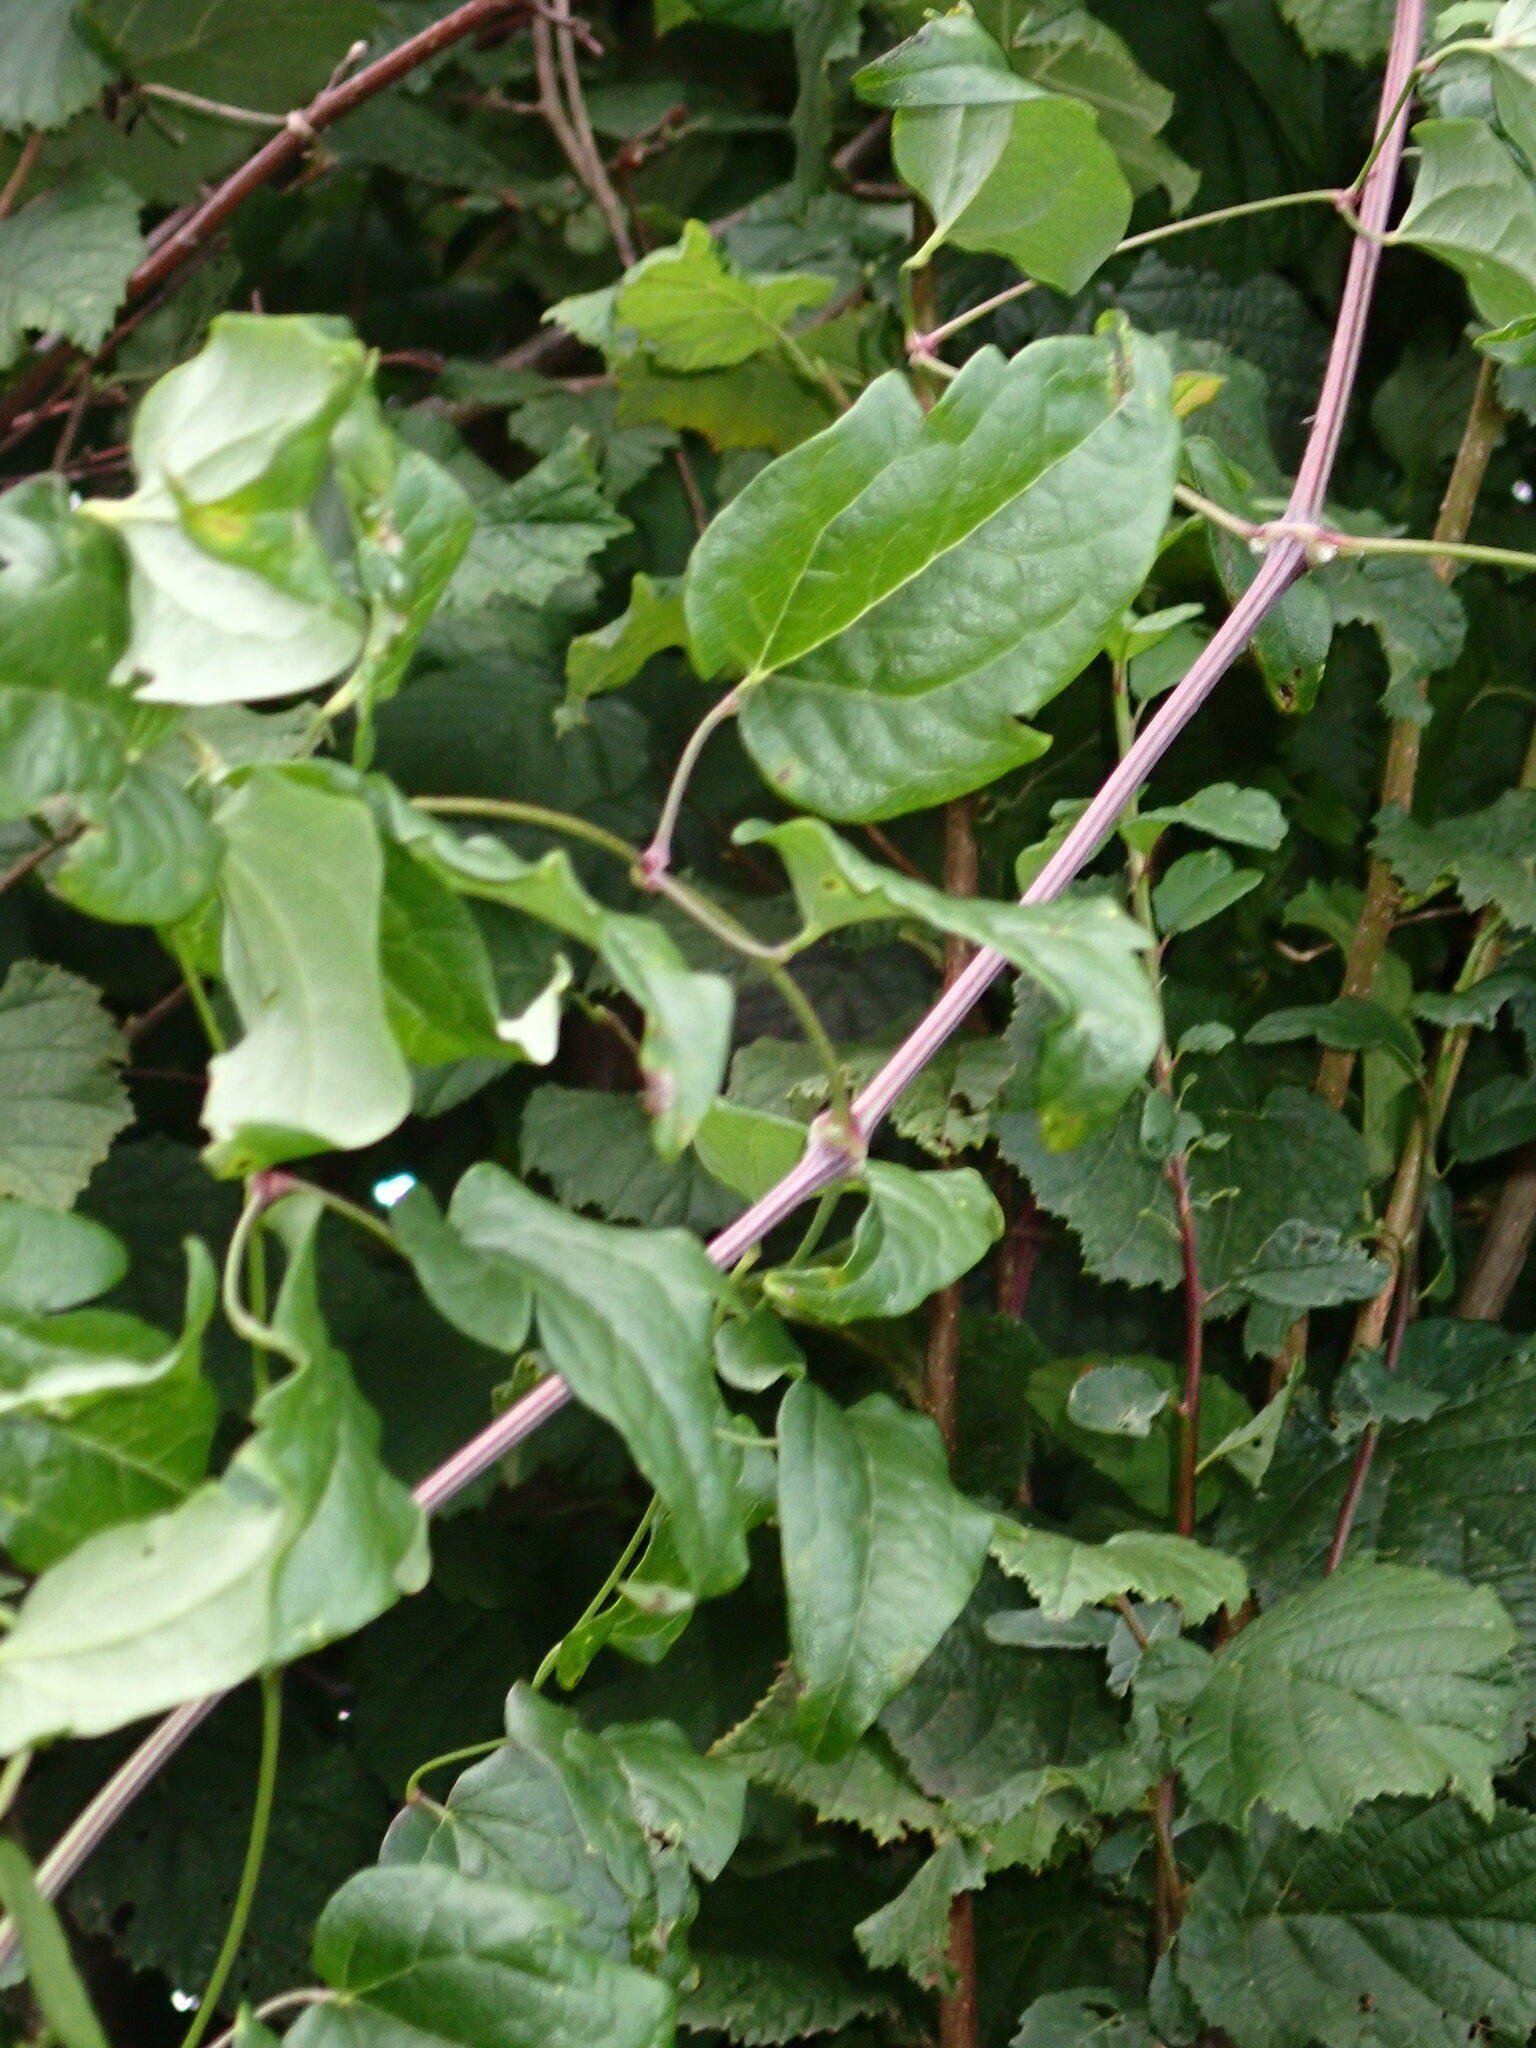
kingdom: Plantae
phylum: Tracheophyta
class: Magnoliopsida
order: Ranunculales
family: Ranunculaceae
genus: Clematis
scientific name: Clematis vitalba
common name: Evergreen clematis
